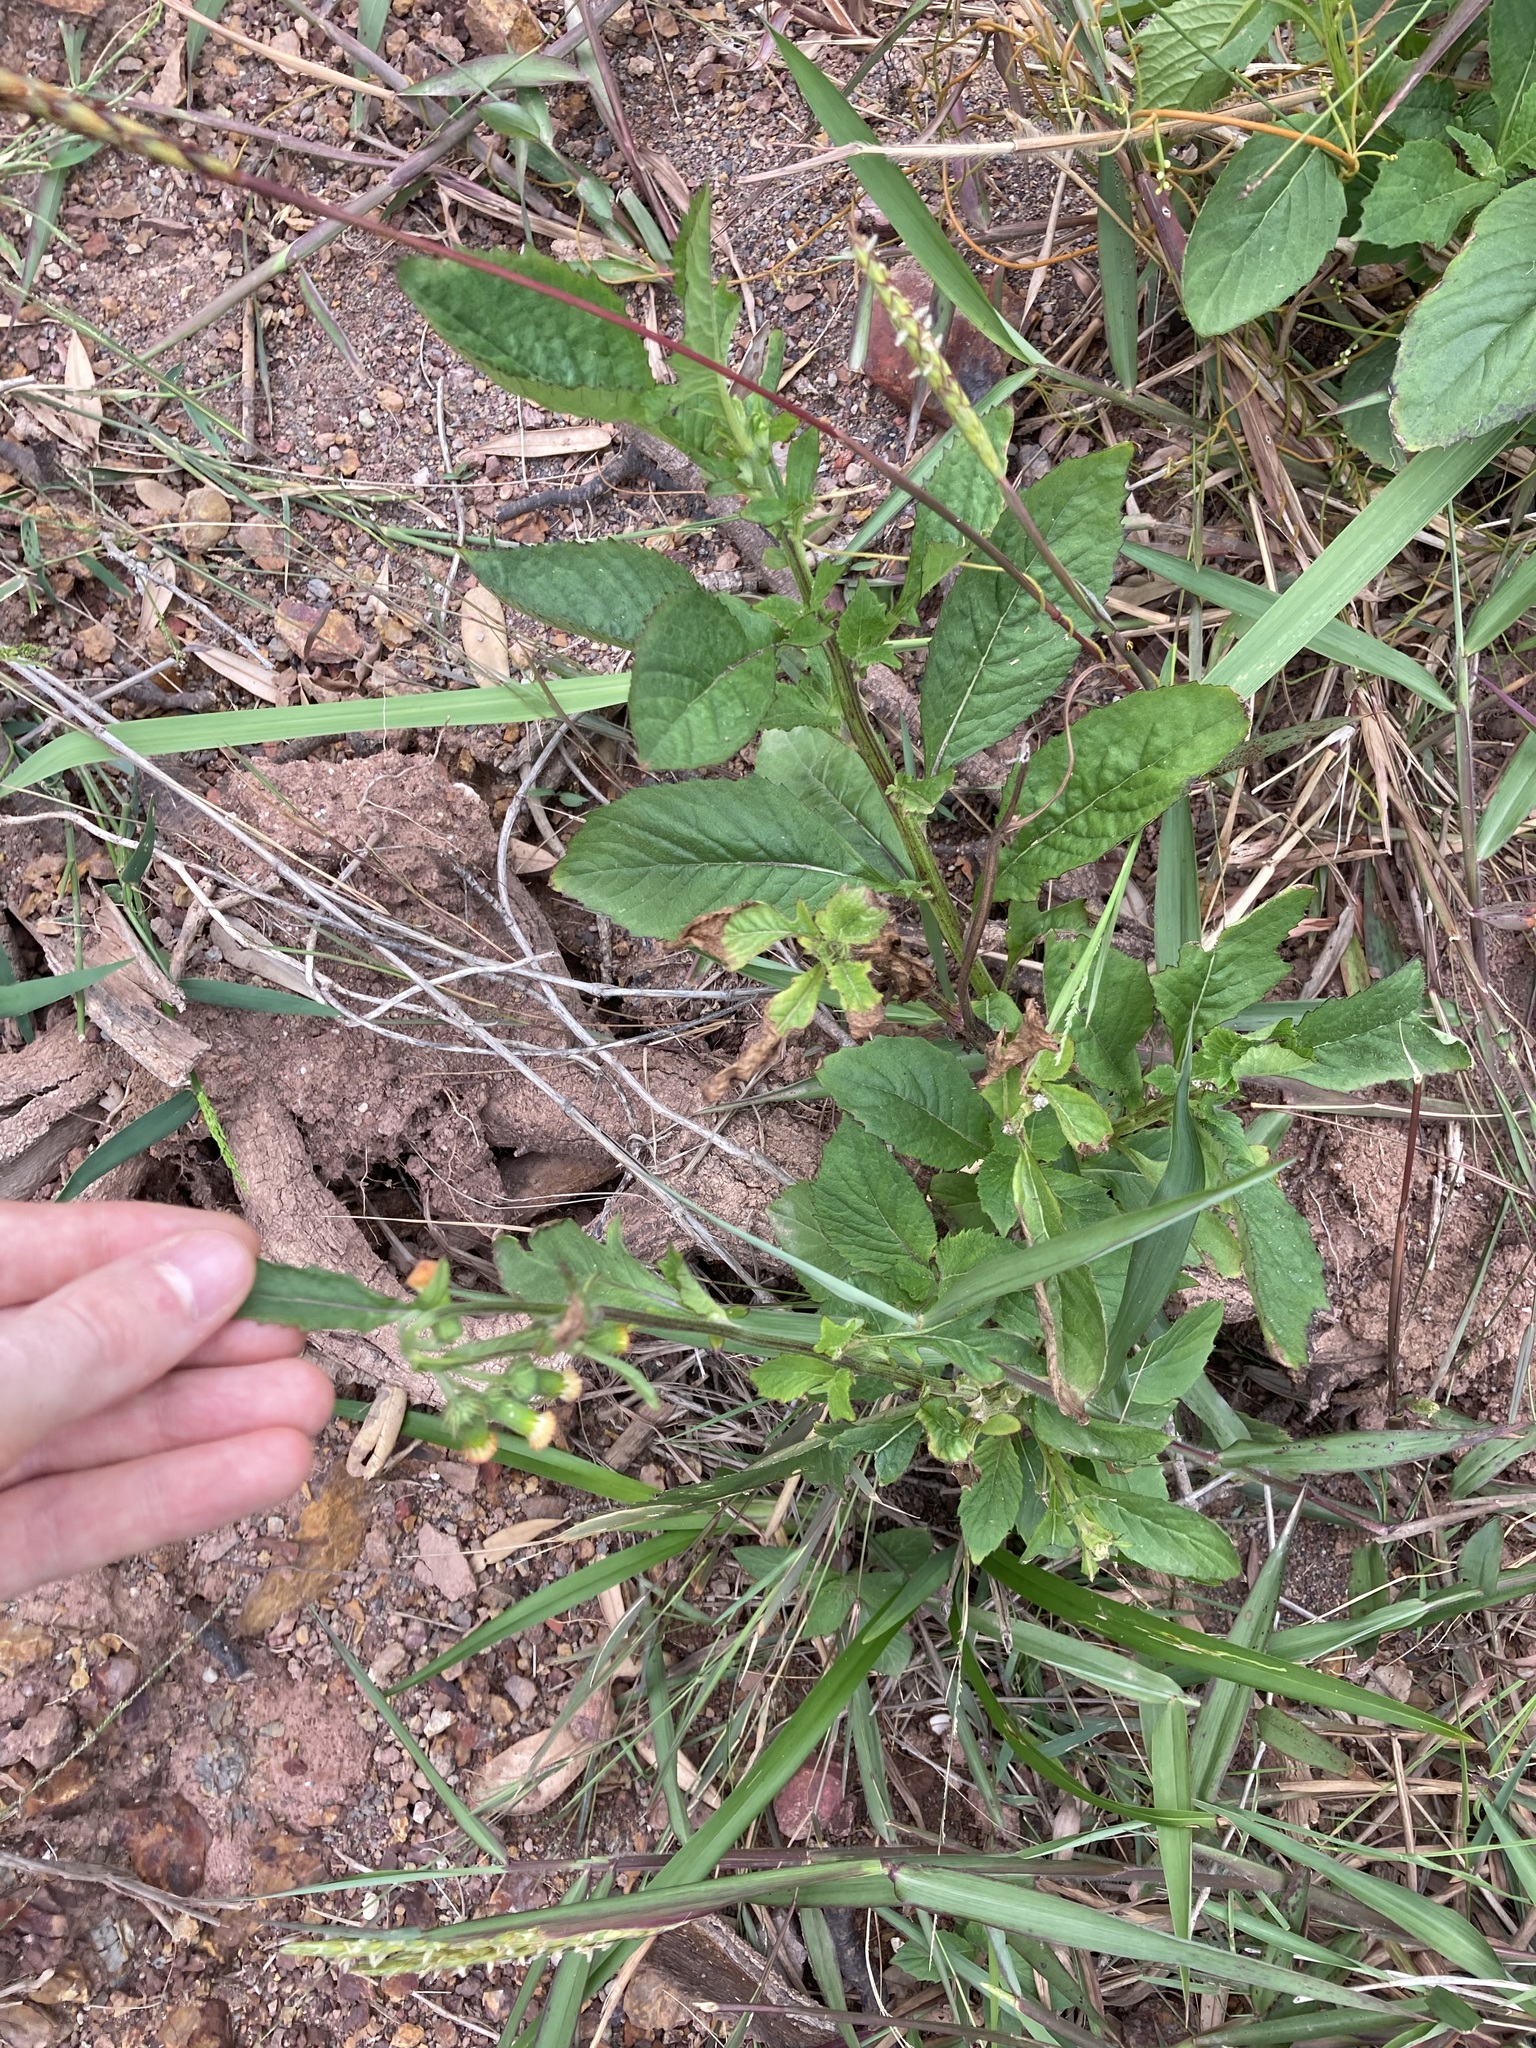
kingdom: Plantae
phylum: Tracheophyta
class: Magnoliopsida
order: Asterales
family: Asteraceae
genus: Crassocephalum
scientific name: Crassocephalum crepidioides
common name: Redflower ragleaf
